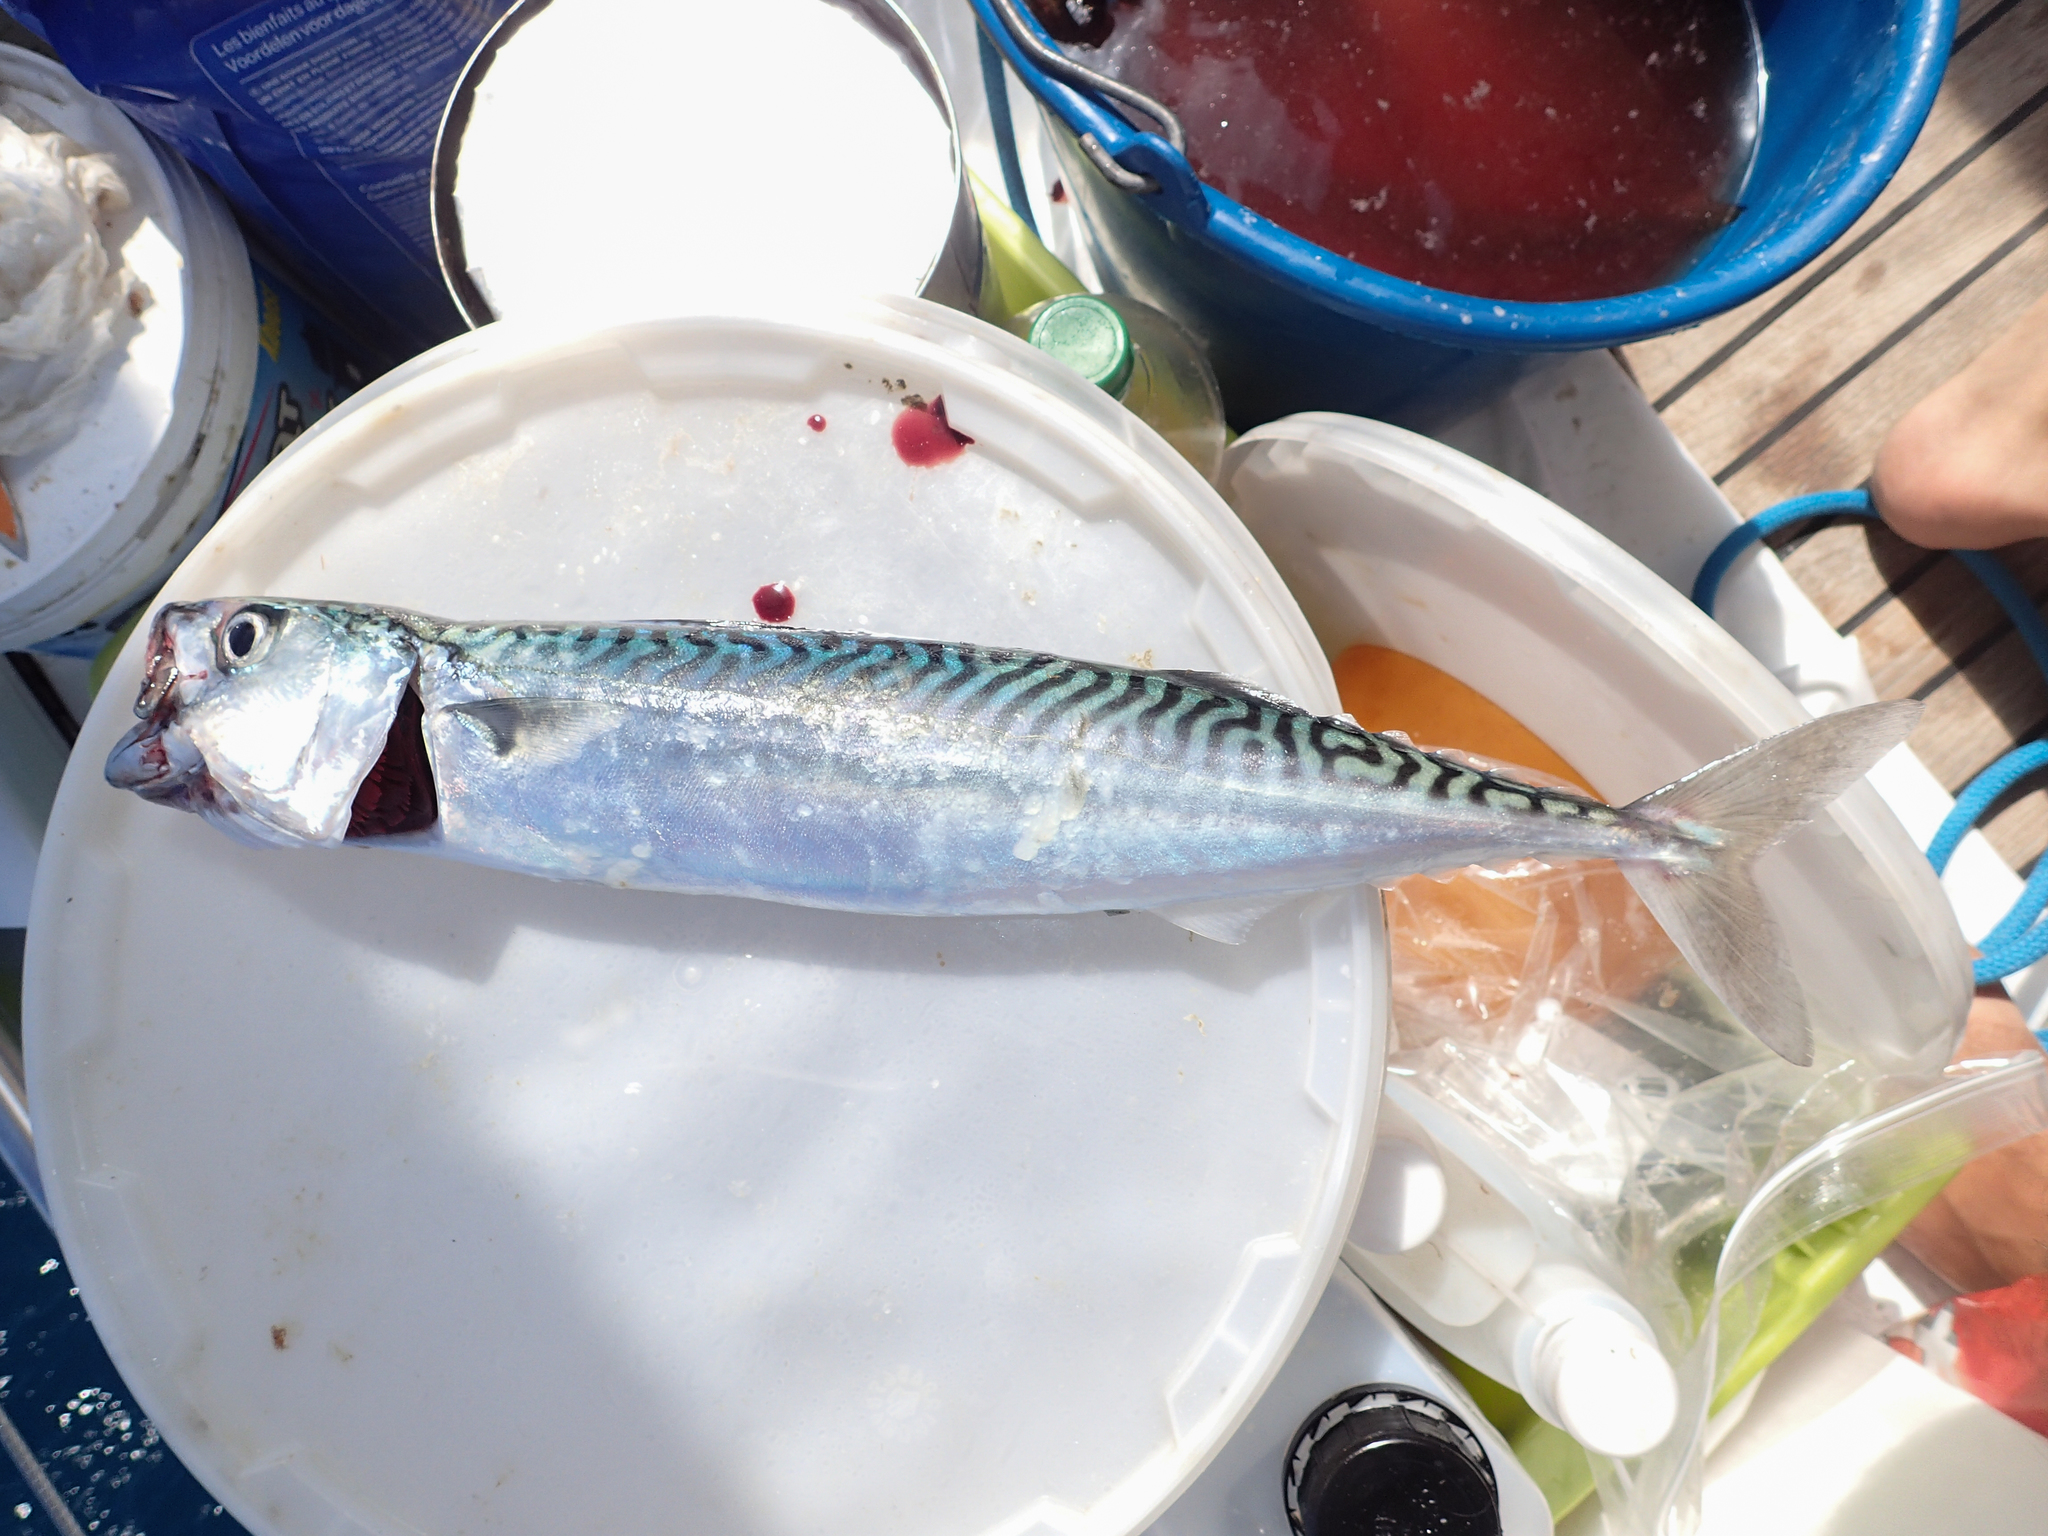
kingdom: Animalia
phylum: Chordata
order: Perciformes
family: Scombridae
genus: Scomber
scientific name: Scomber scombrus
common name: Mackerel
